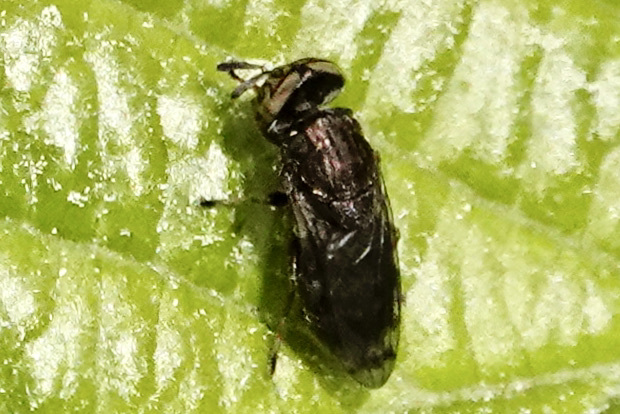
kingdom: Animalia
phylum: Arthropoda
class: Insecta
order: Diptera
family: Syrphidae
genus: Orthonevra
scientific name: Orthonevra nitida
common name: Wavy mucksucker
